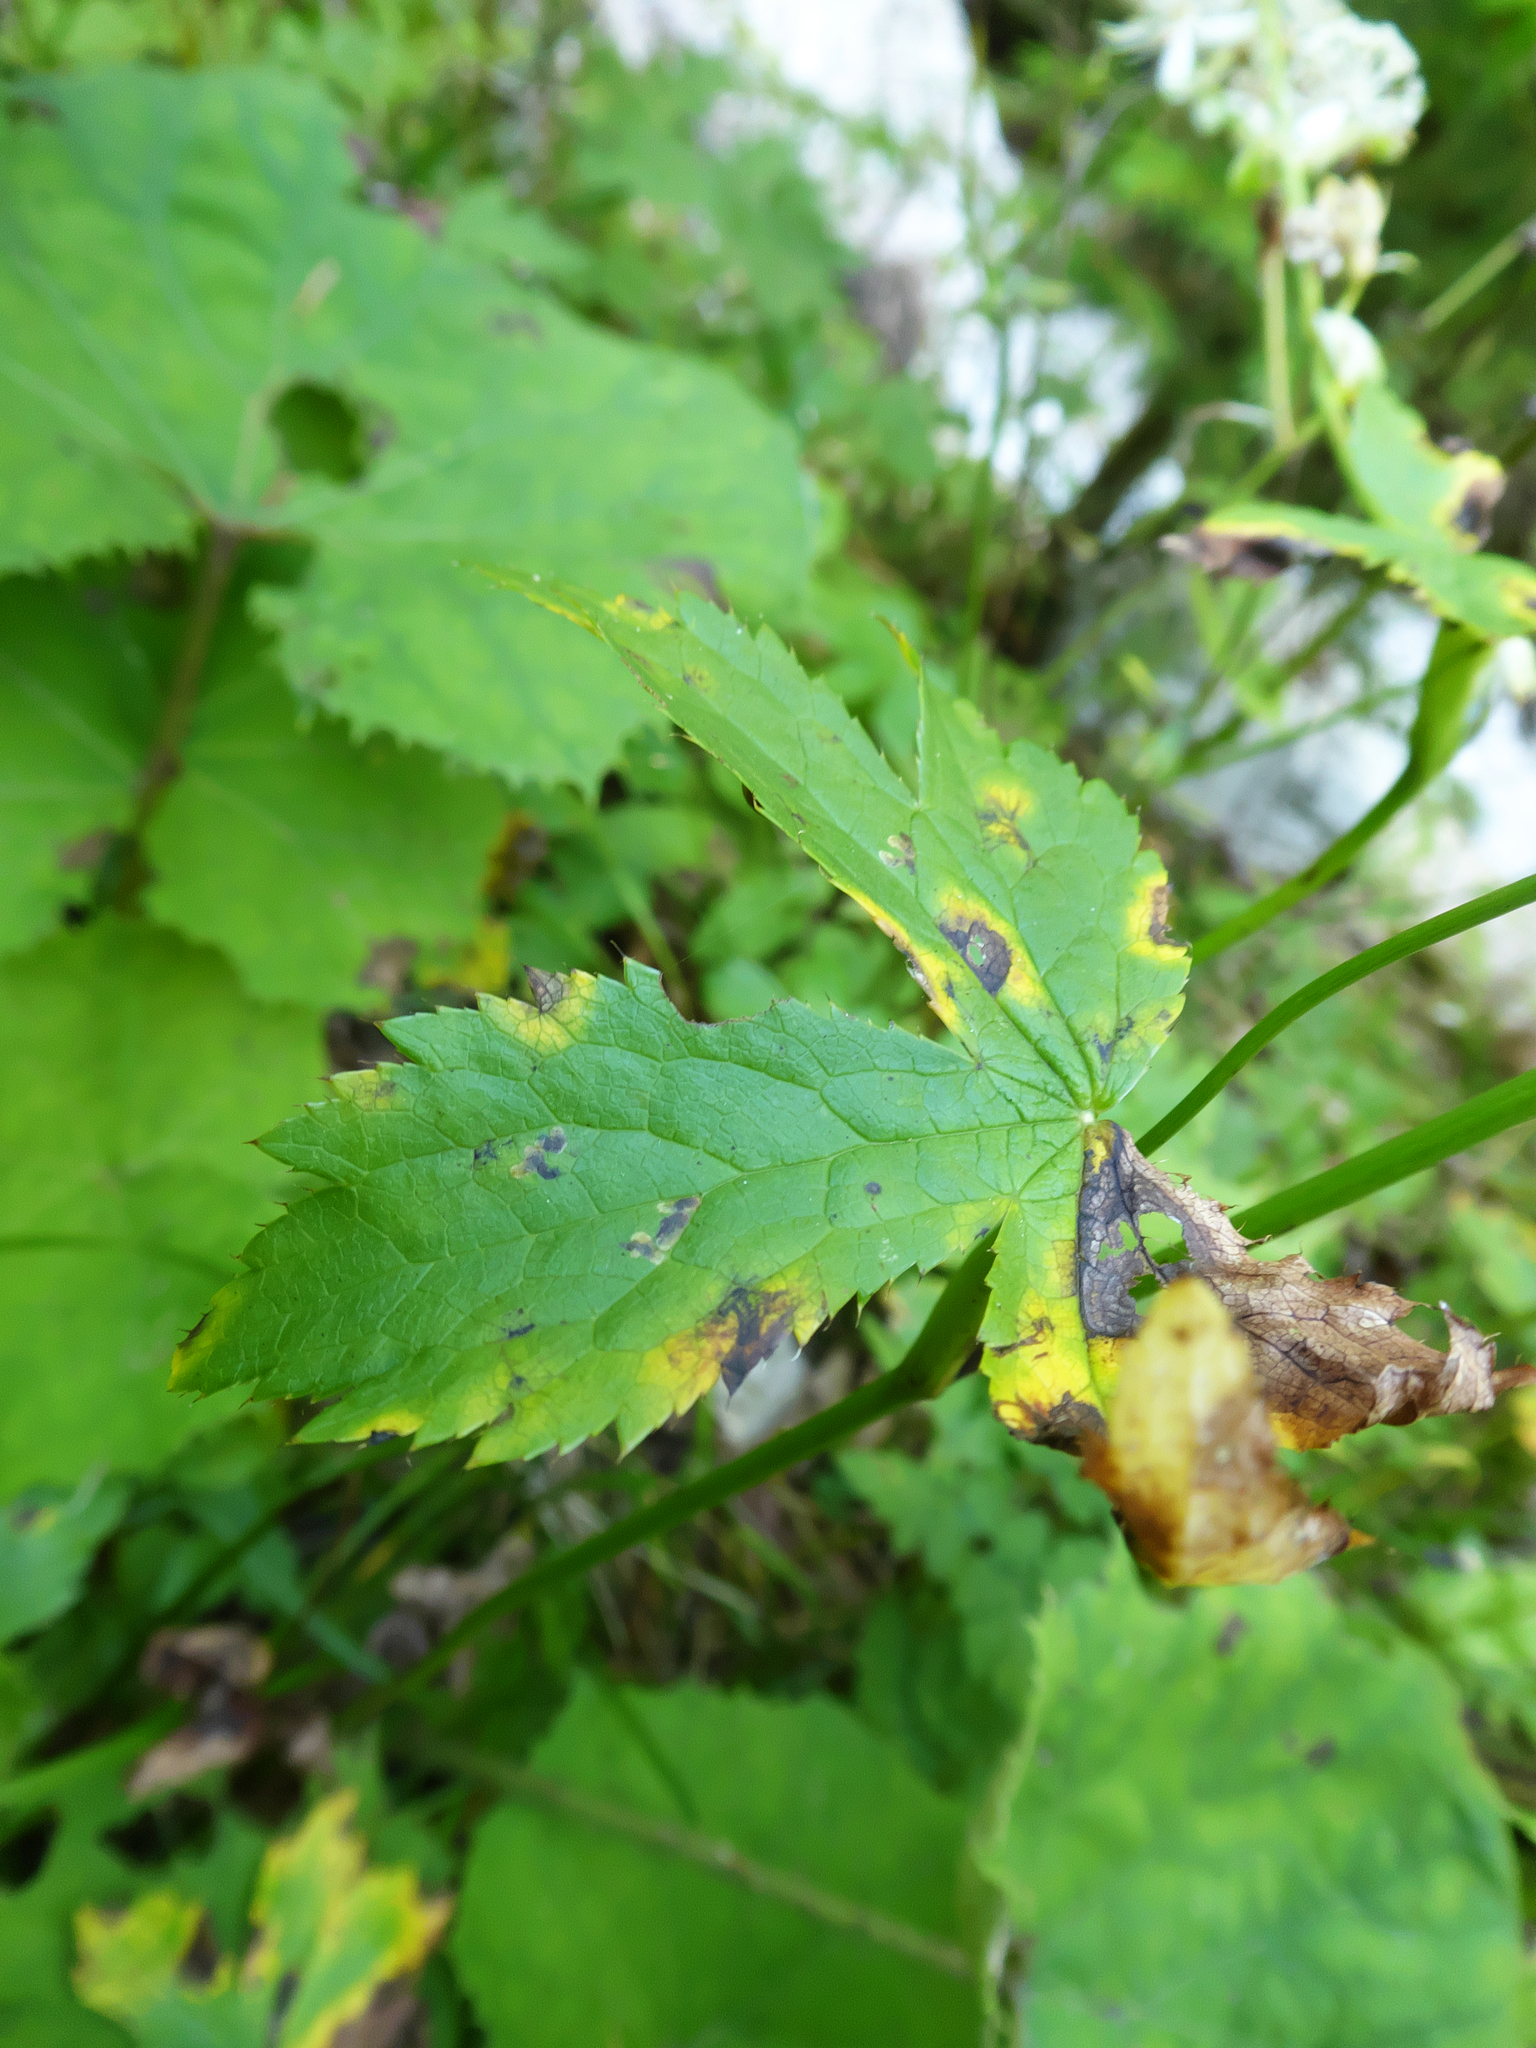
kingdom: Plantae
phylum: Tracheophyta
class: Magnoliopsida
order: Apiales
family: Apiaceae
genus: Astrantia
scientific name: Astrantia major
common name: Greater masterwort
